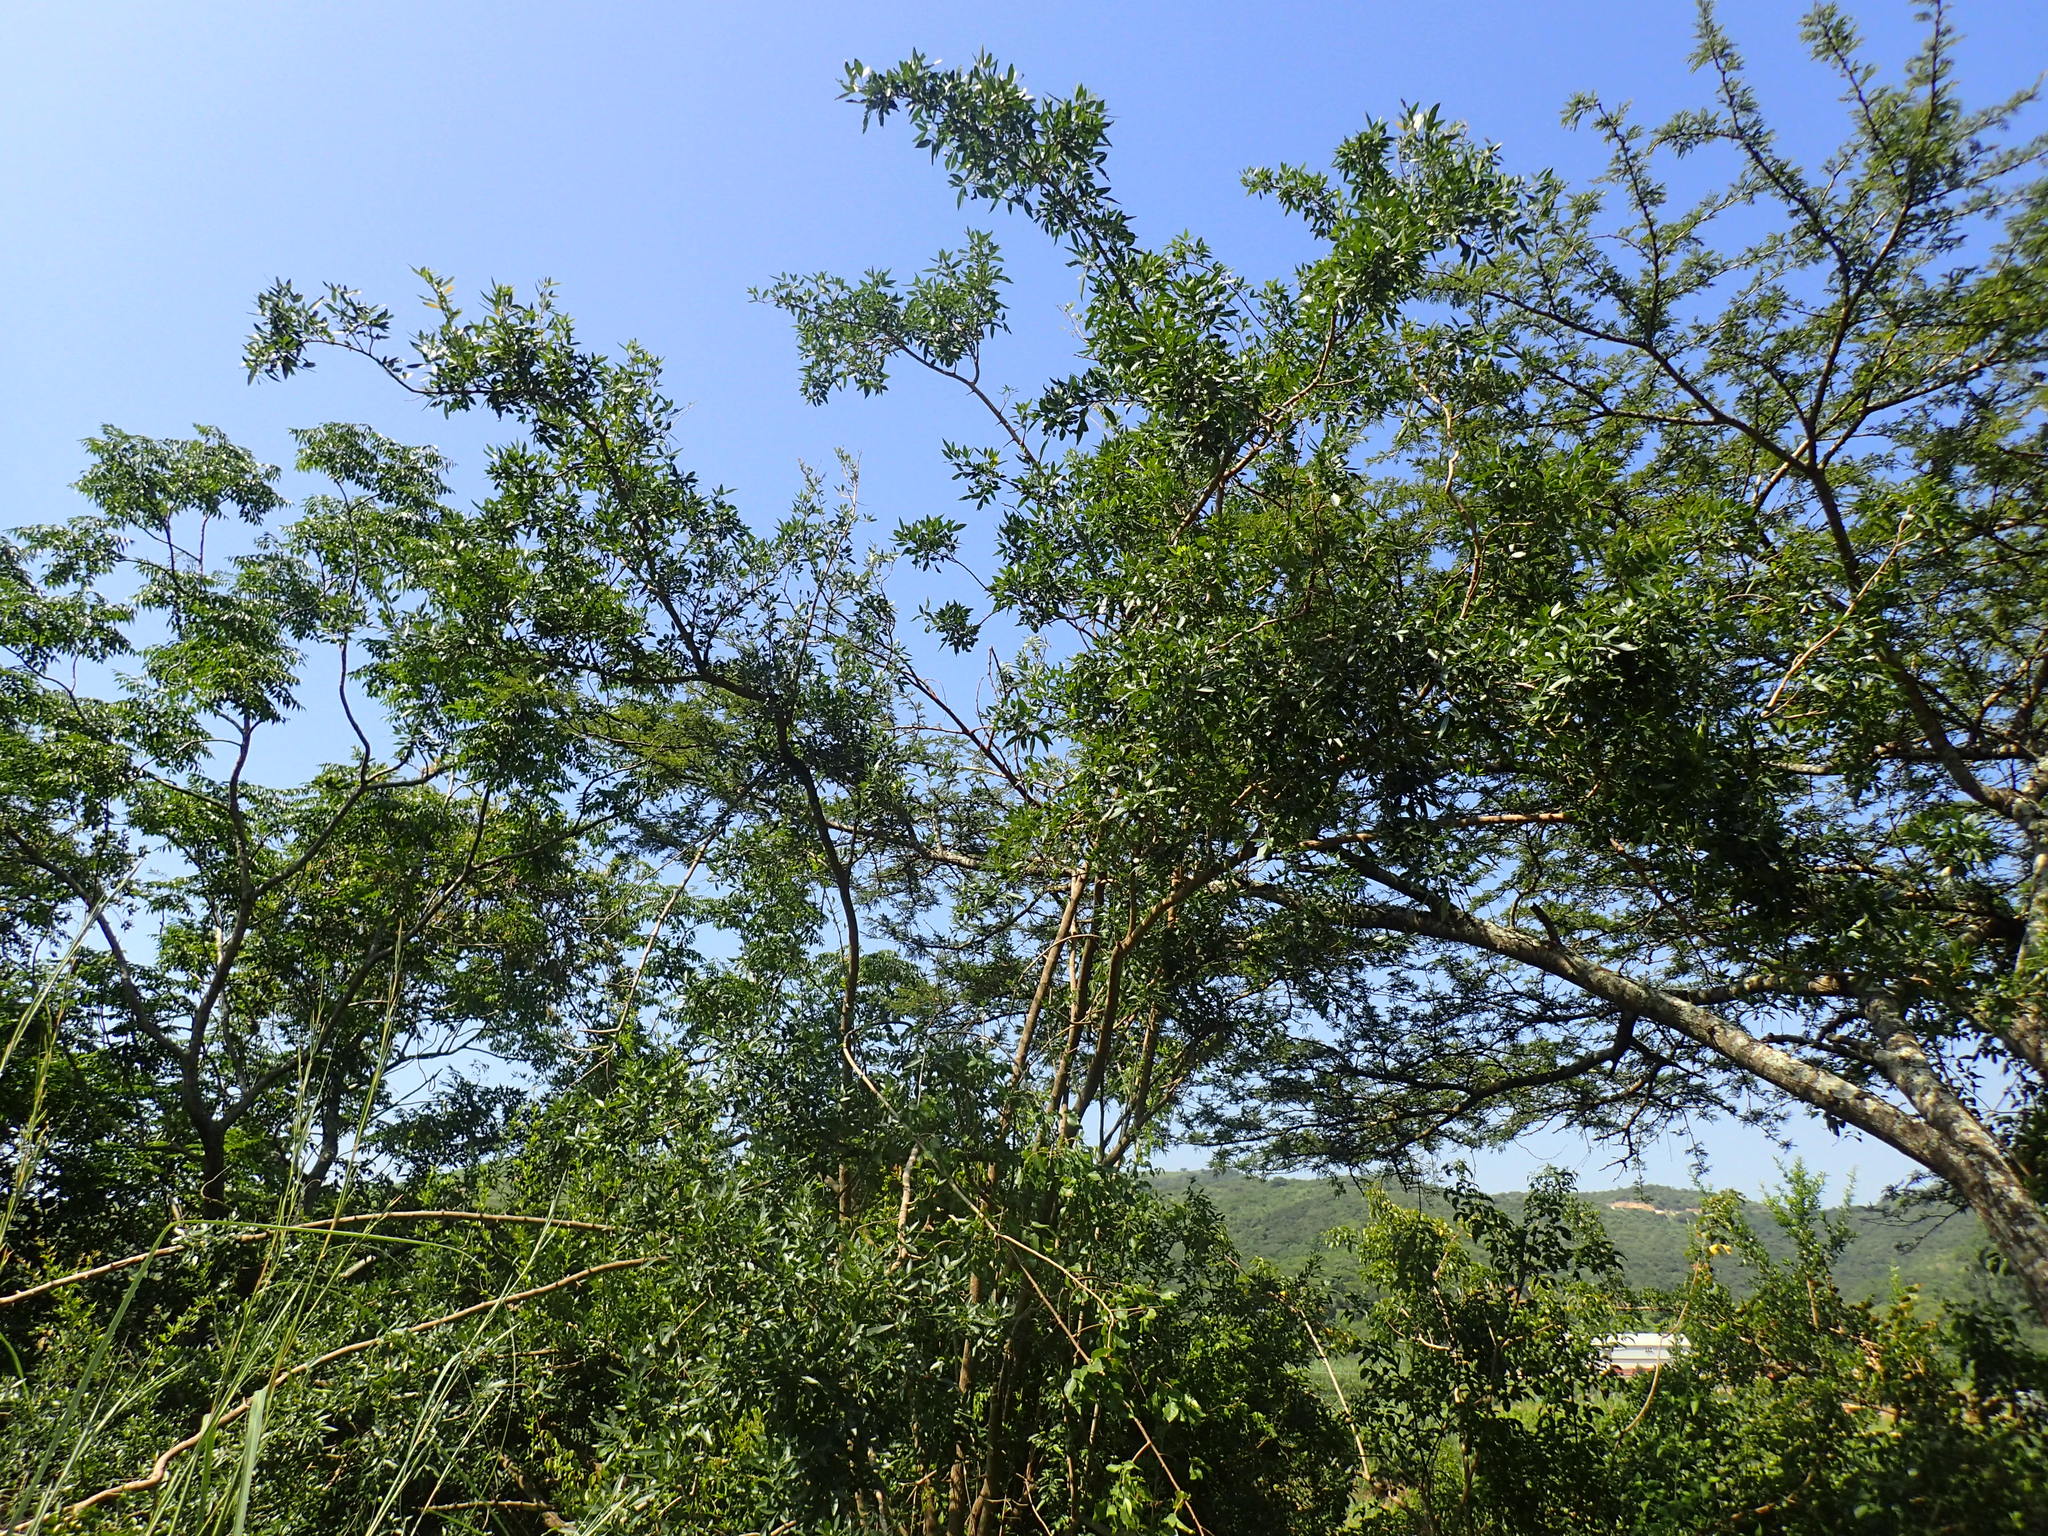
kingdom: Plantae
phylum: Tracheophyta
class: Magnoliopsida
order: Sapindales
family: Anacardiaceae
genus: Searsia
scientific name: Searsia gueinzii
